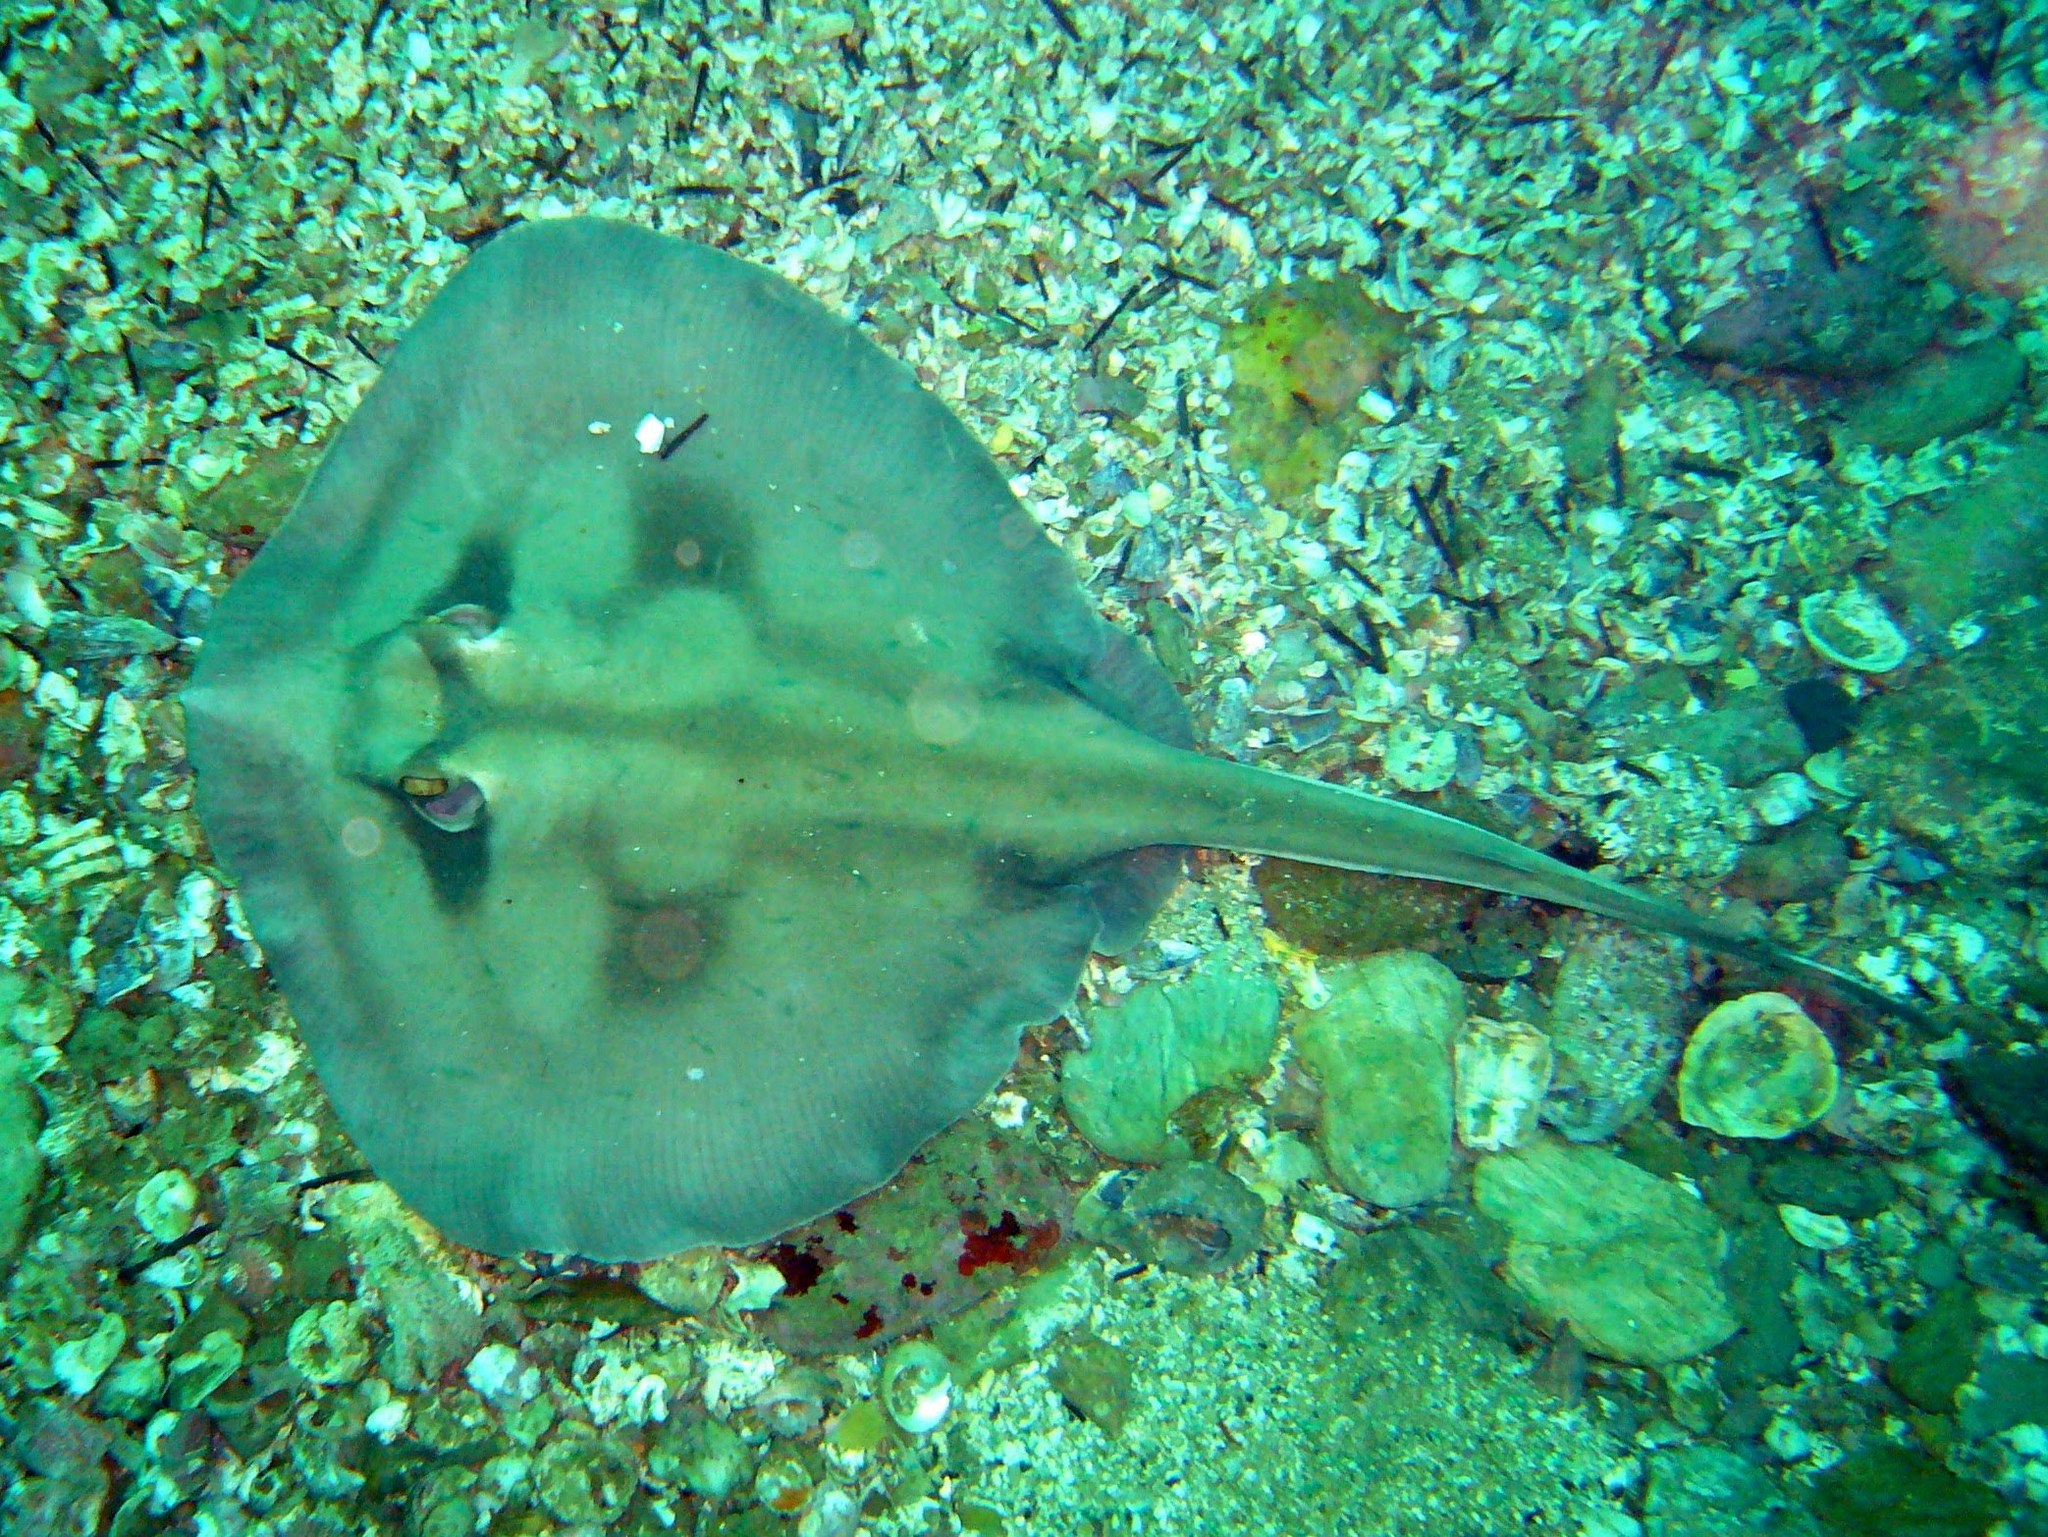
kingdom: Animalia
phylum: Chordata
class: Elasmobranchii
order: Myliobatiformes
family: Urolophidae
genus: Urolophus
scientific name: Urolophus kapalensis
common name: Kapala stingaree
